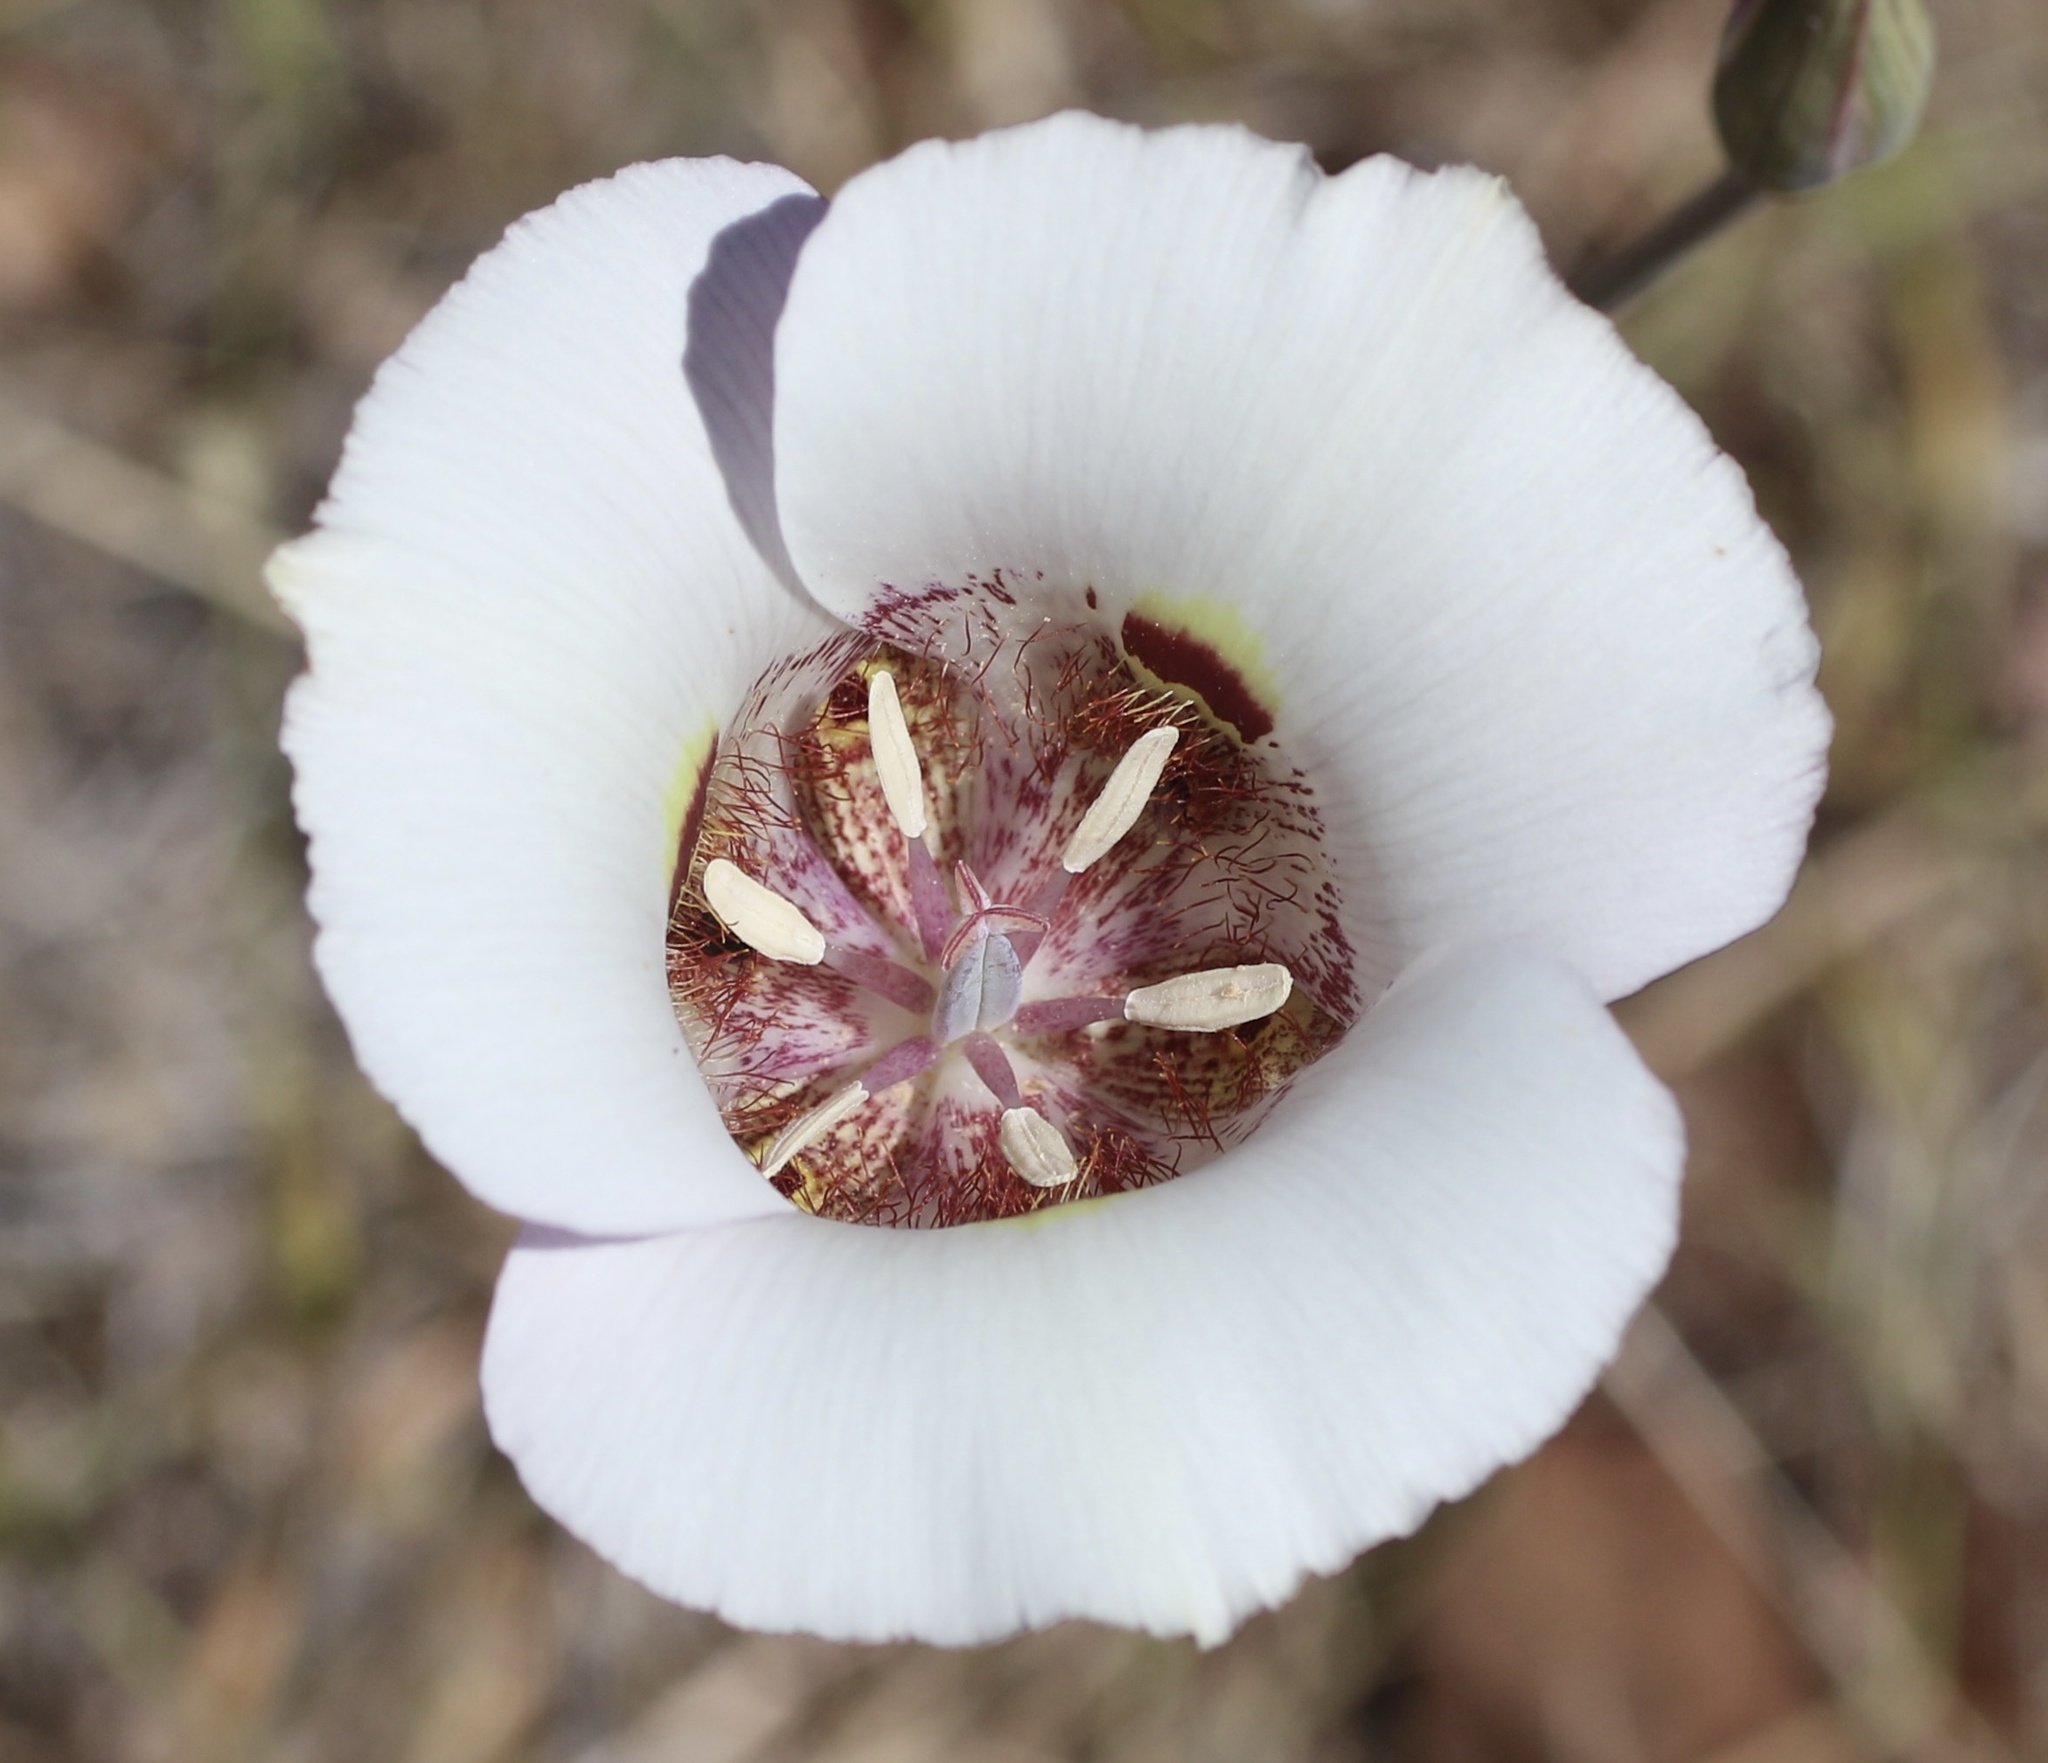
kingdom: Plantae
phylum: Tracheophyta
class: Liliopsida
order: Liliales
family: Liliaceae
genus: Calochortus
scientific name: Calochortus argillosus
